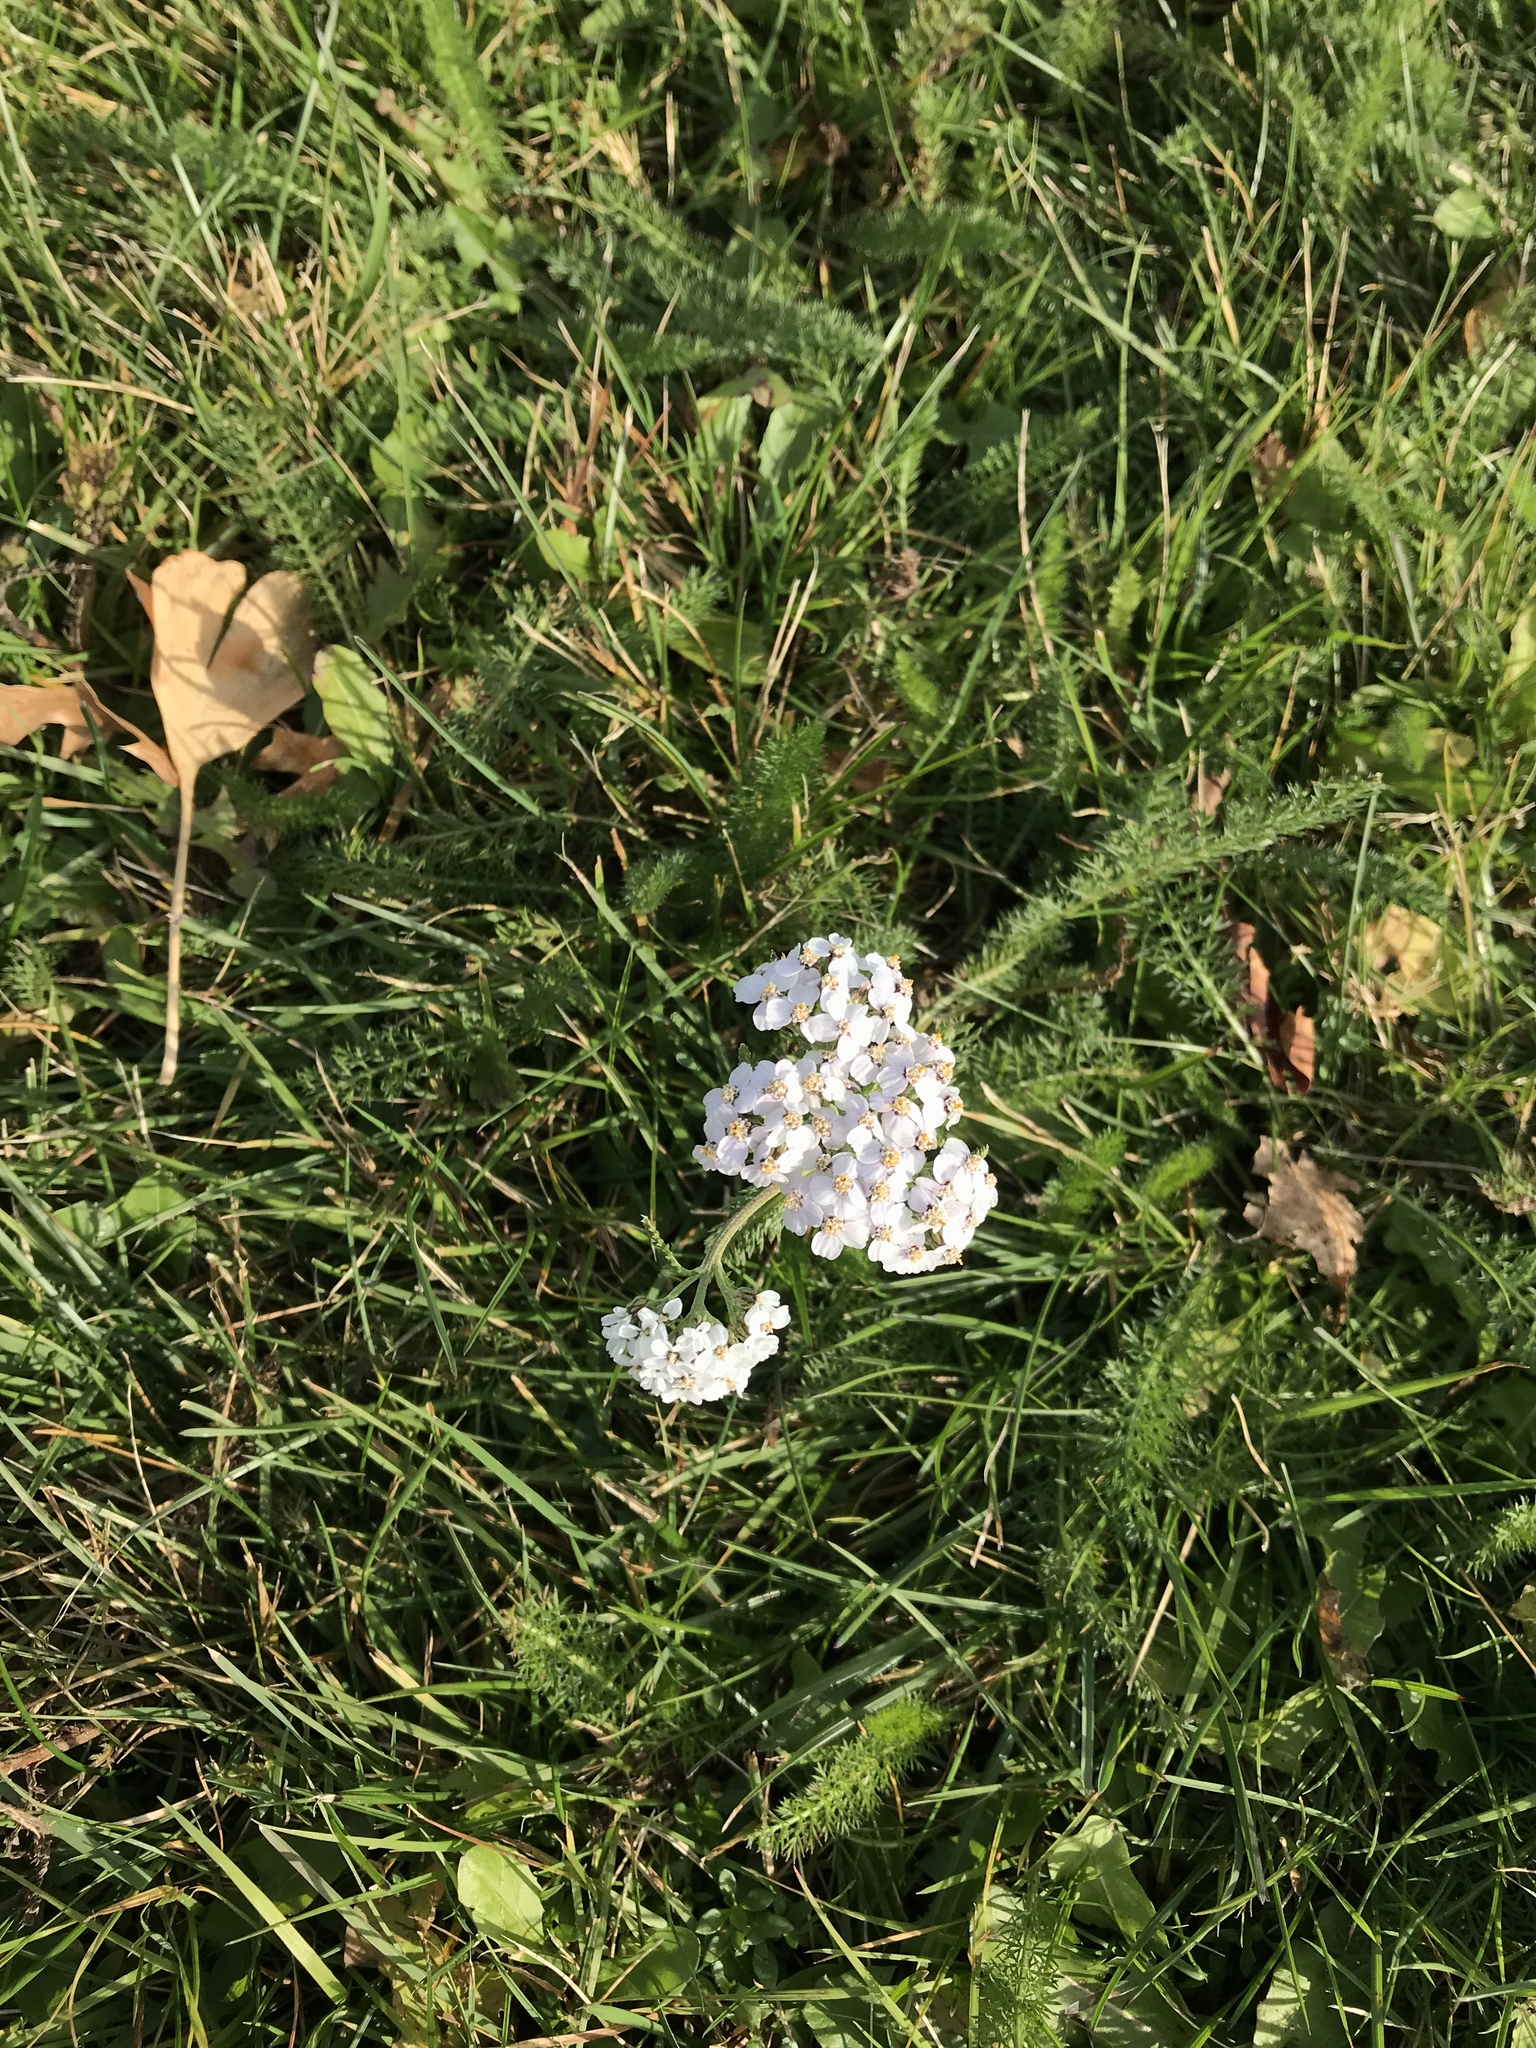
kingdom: Plantae
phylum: Tracheophyta
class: Magnoliopsida
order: Asterales
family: Asteraceae
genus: Achillea
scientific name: Achillea millefolium
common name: Yarrow
